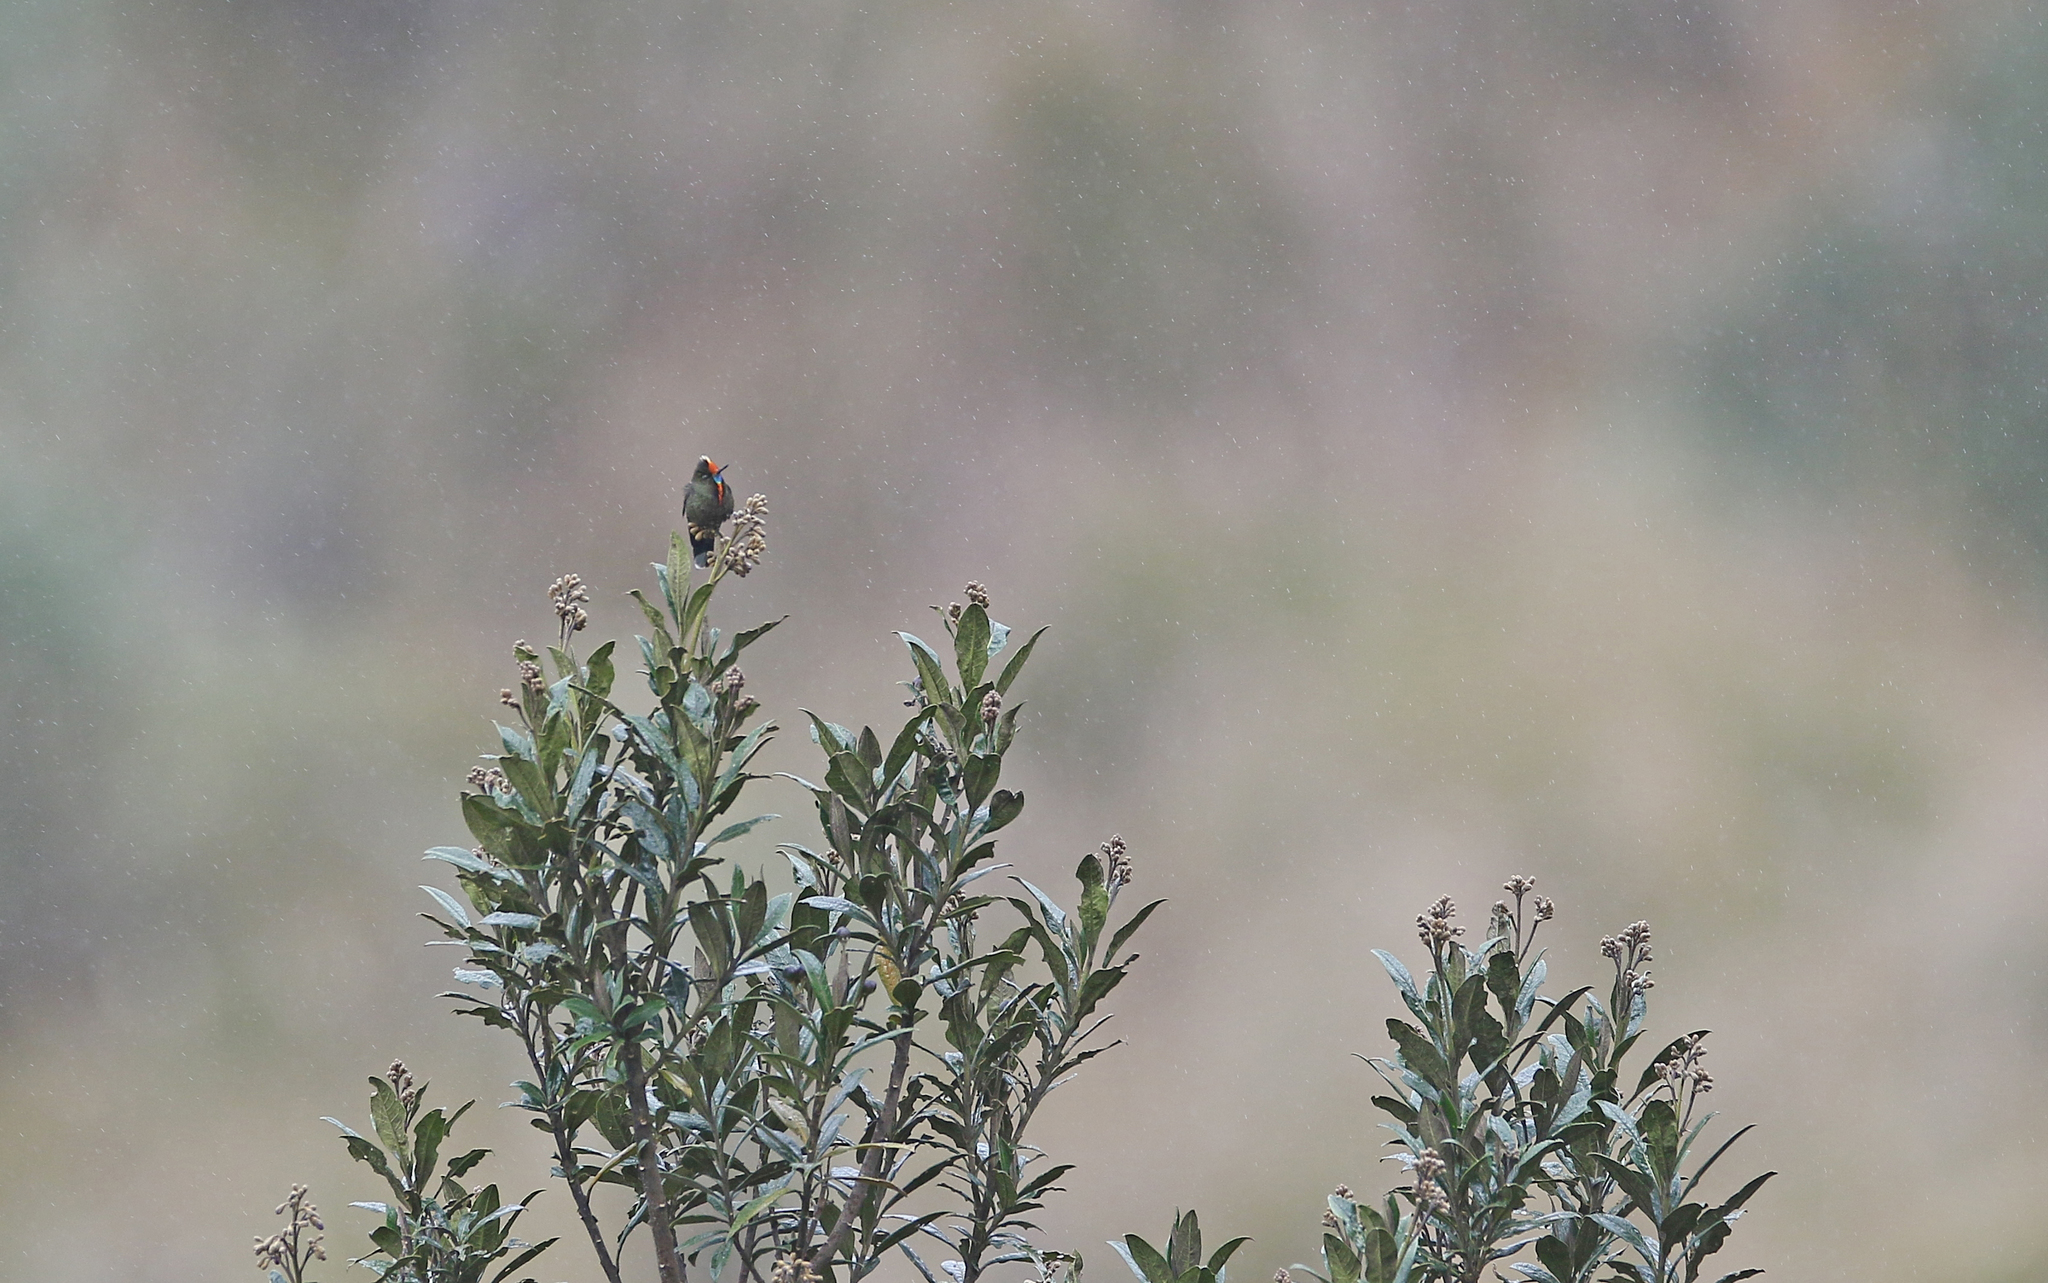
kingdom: Animalia
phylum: Chordata
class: Aves
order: Apodiformes
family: Trochilidae
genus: Chalcostigma
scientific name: Chalcostigma herrani
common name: Rainbow-bearded thornbill
